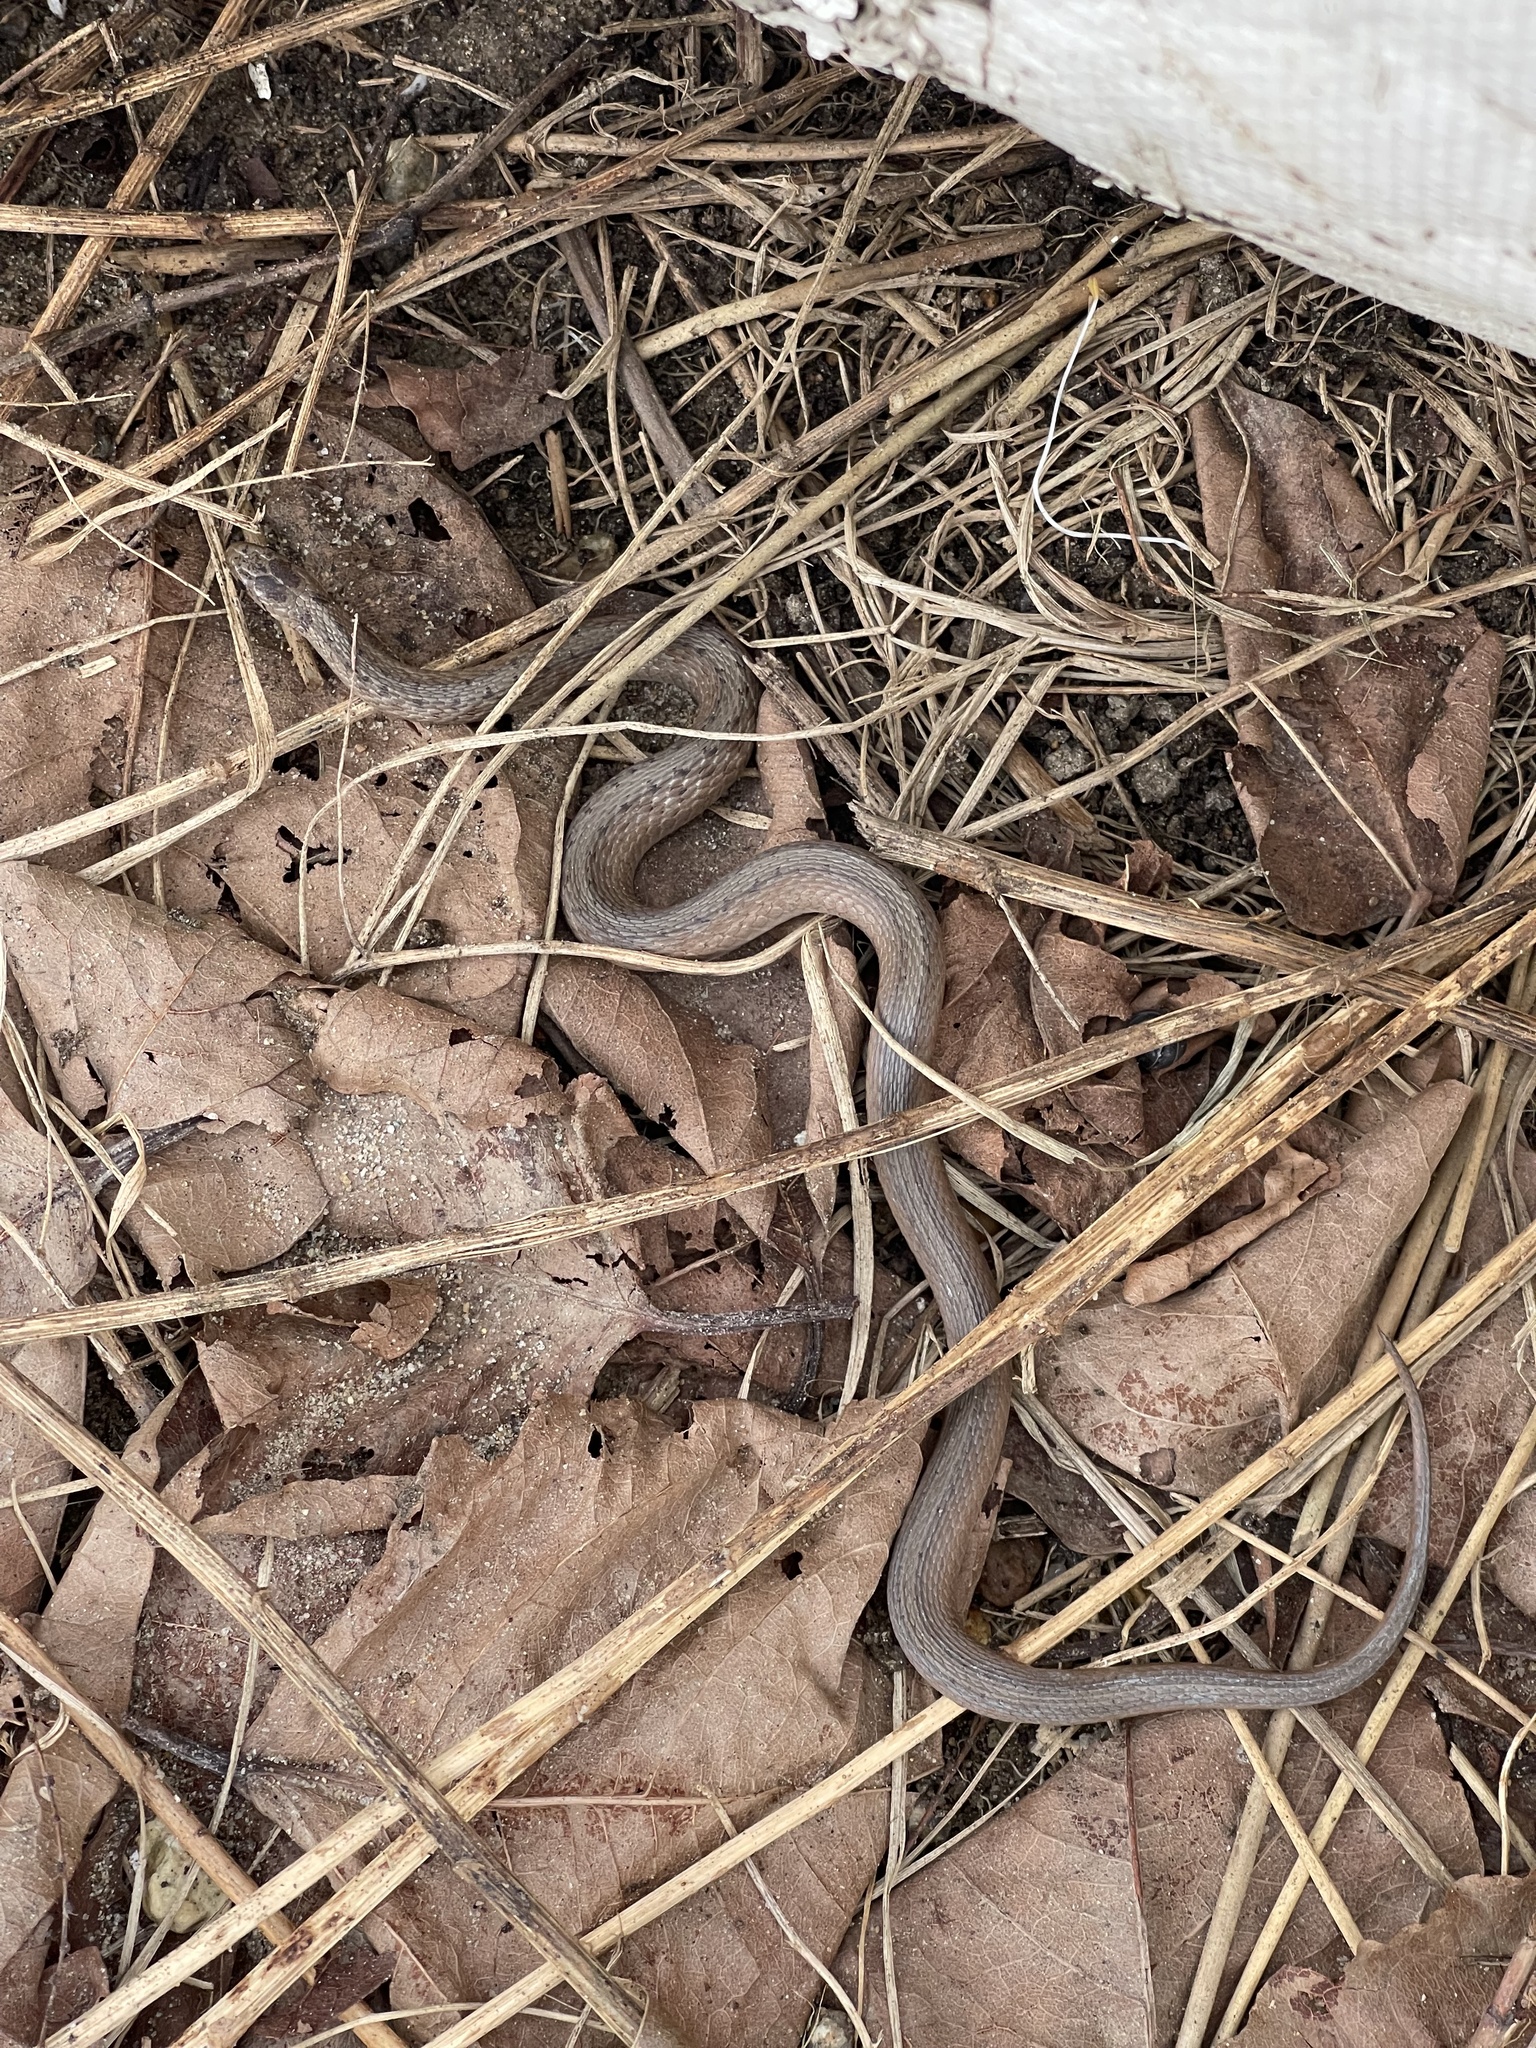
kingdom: Animalia
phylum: Chordata
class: Squamata
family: Colubridae
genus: Storeria
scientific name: Storeria dekayi
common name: (dekay’s) brown snake
